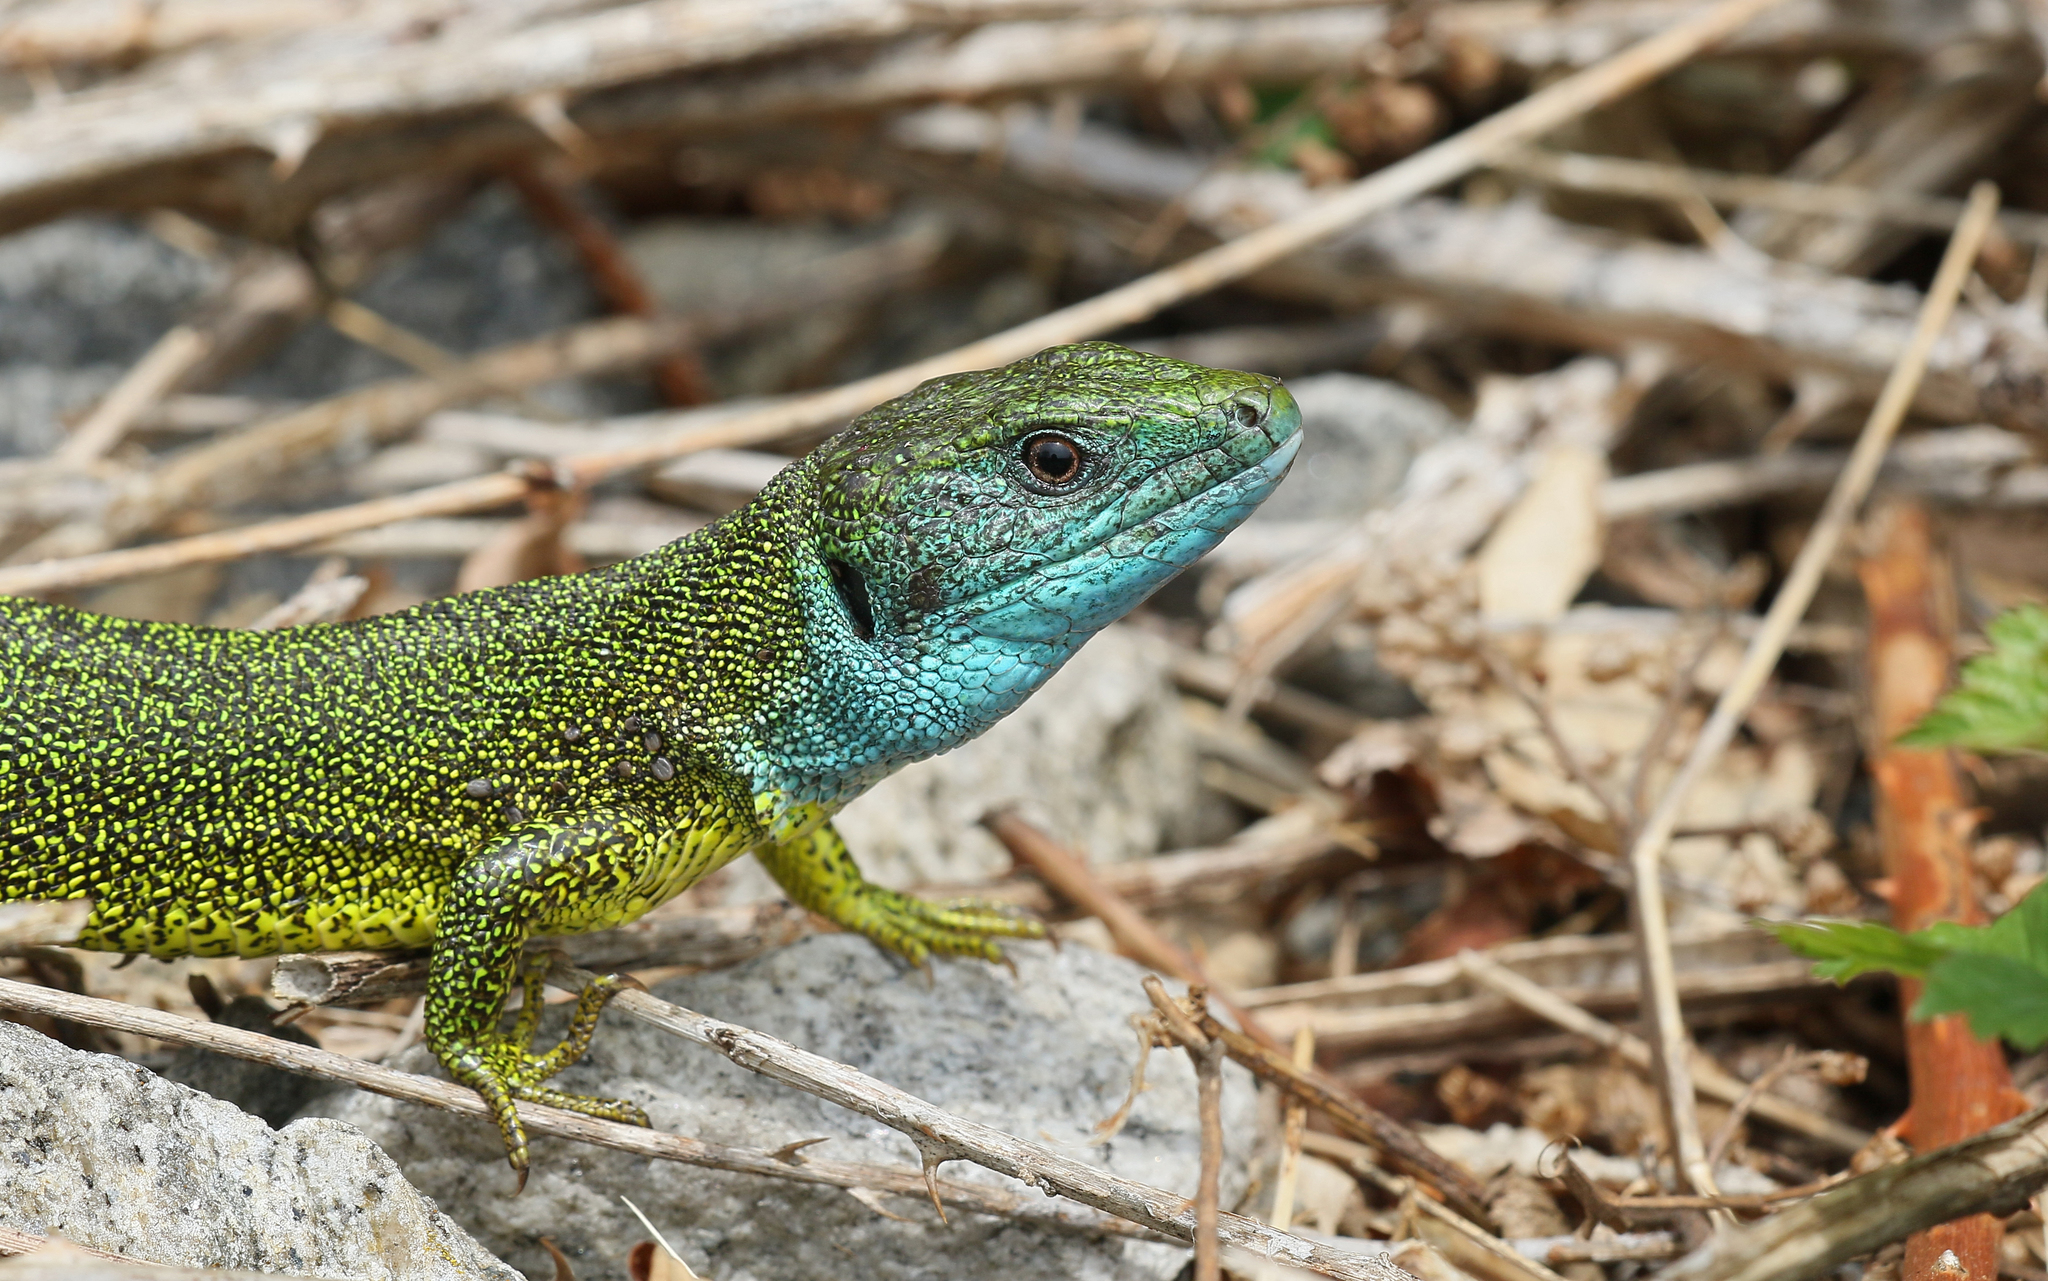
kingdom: Animalia
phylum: Chordata
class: Squamata
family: Lacertidae
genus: Lacerta
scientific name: Lacerta viridis
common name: European green lizard
